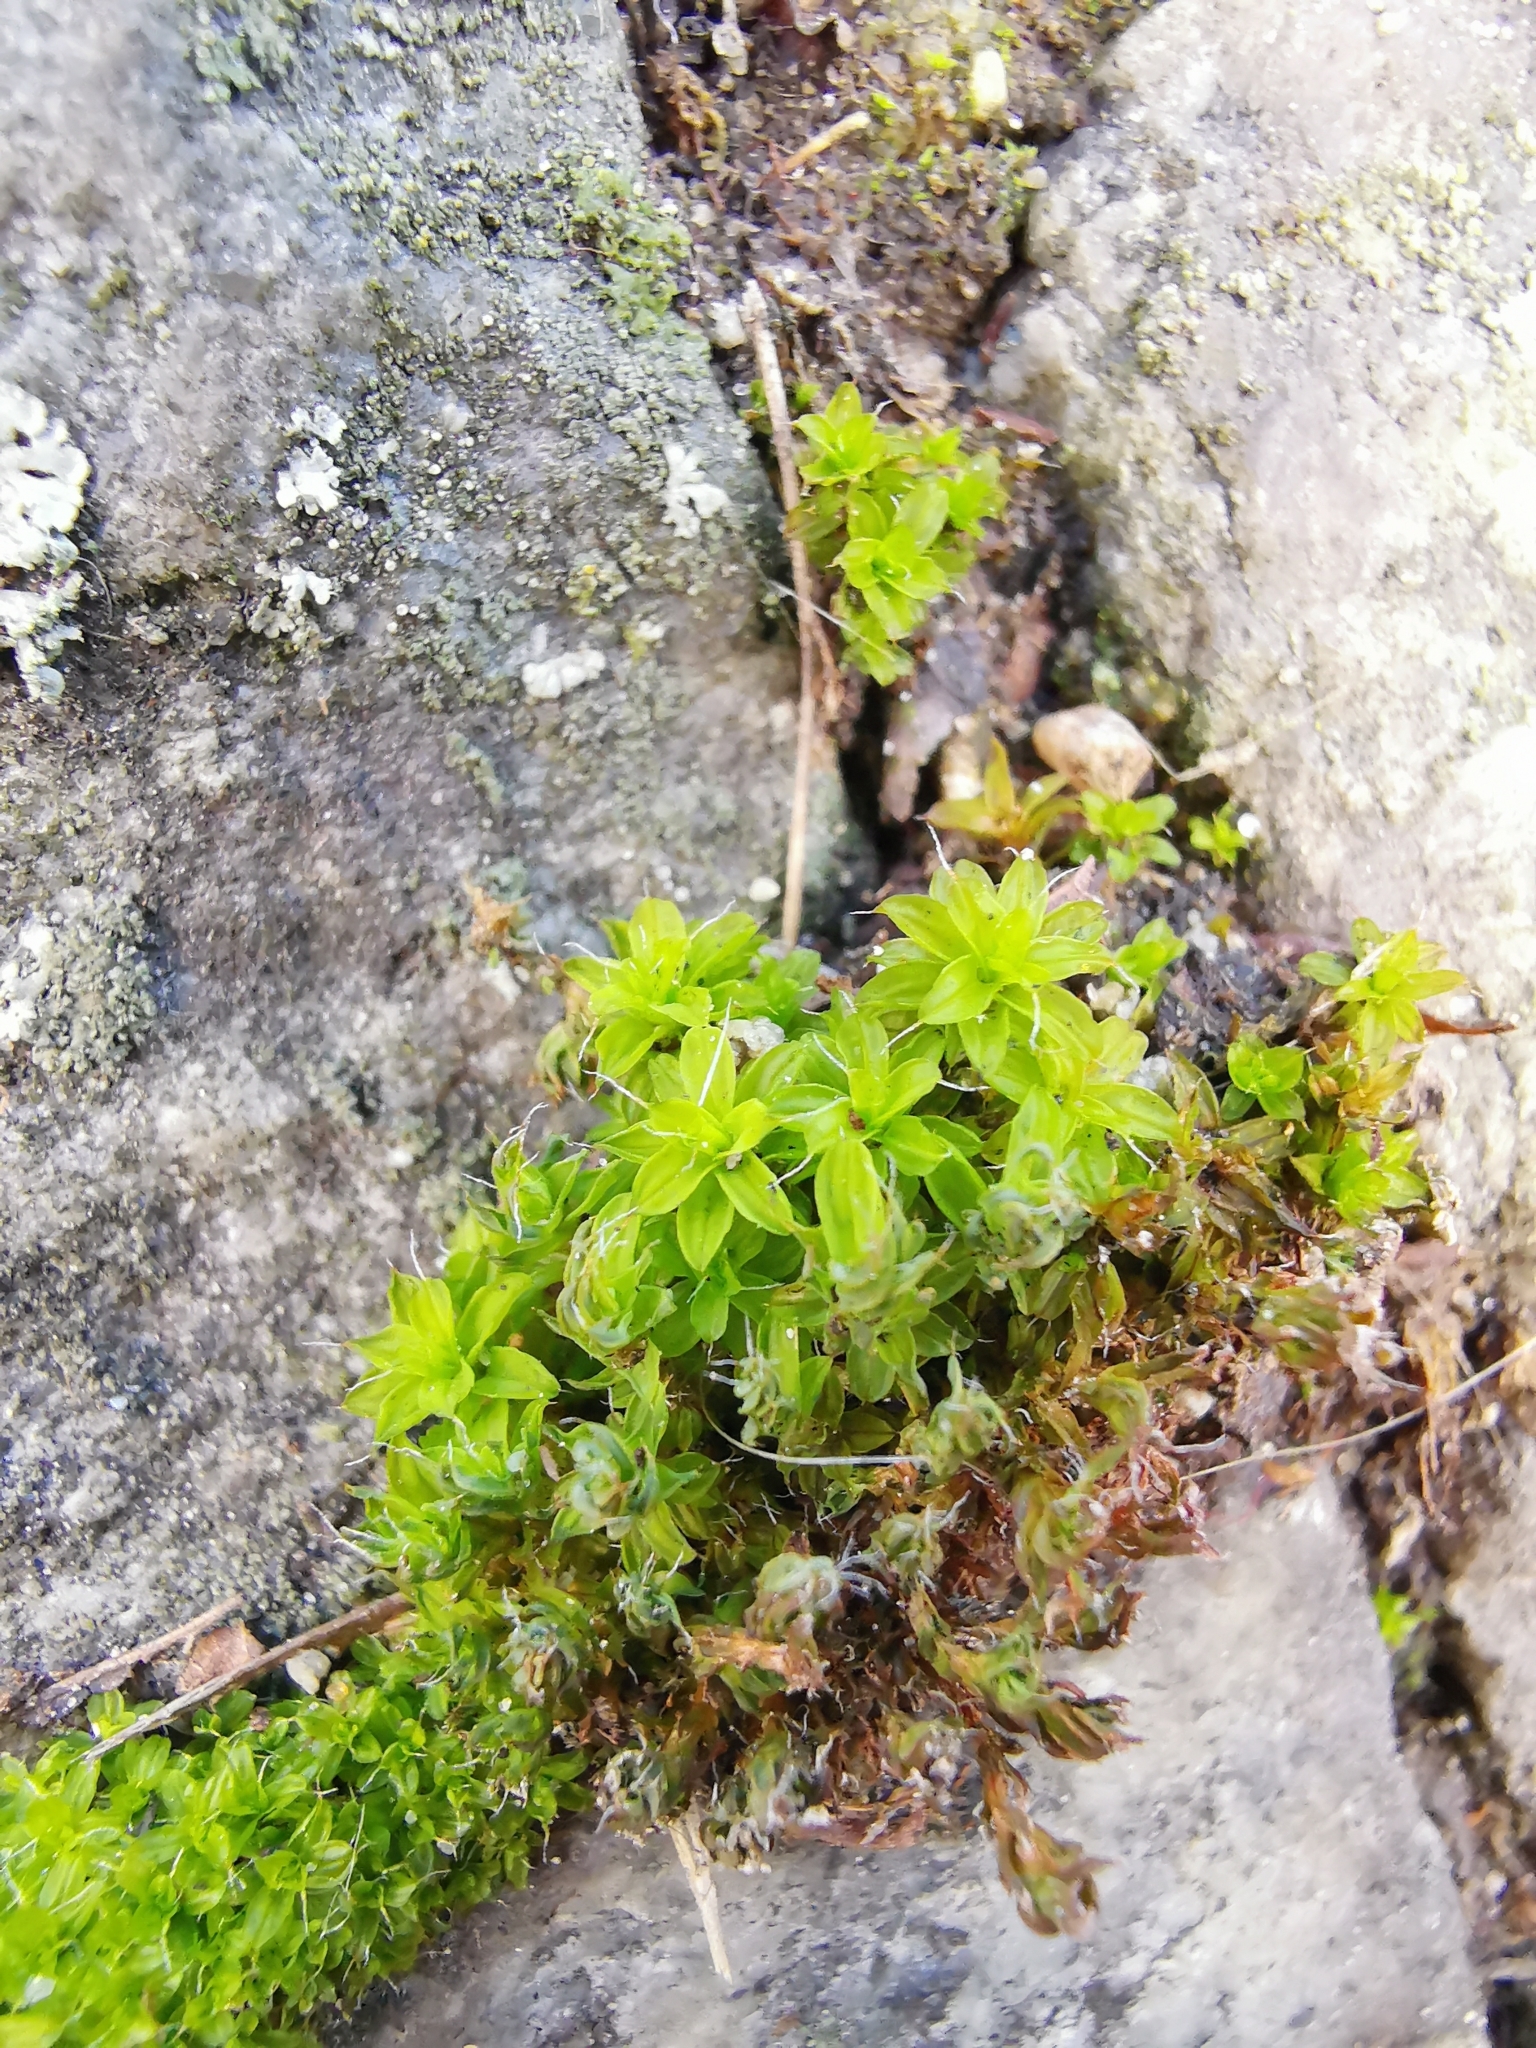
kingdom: Plantae
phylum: Bryophyta
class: Bryopsida
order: Pottiales
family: Pottiaceae
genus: Syntrichia
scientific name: Syntrichia ruralis
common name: Sidewalk screw moss
